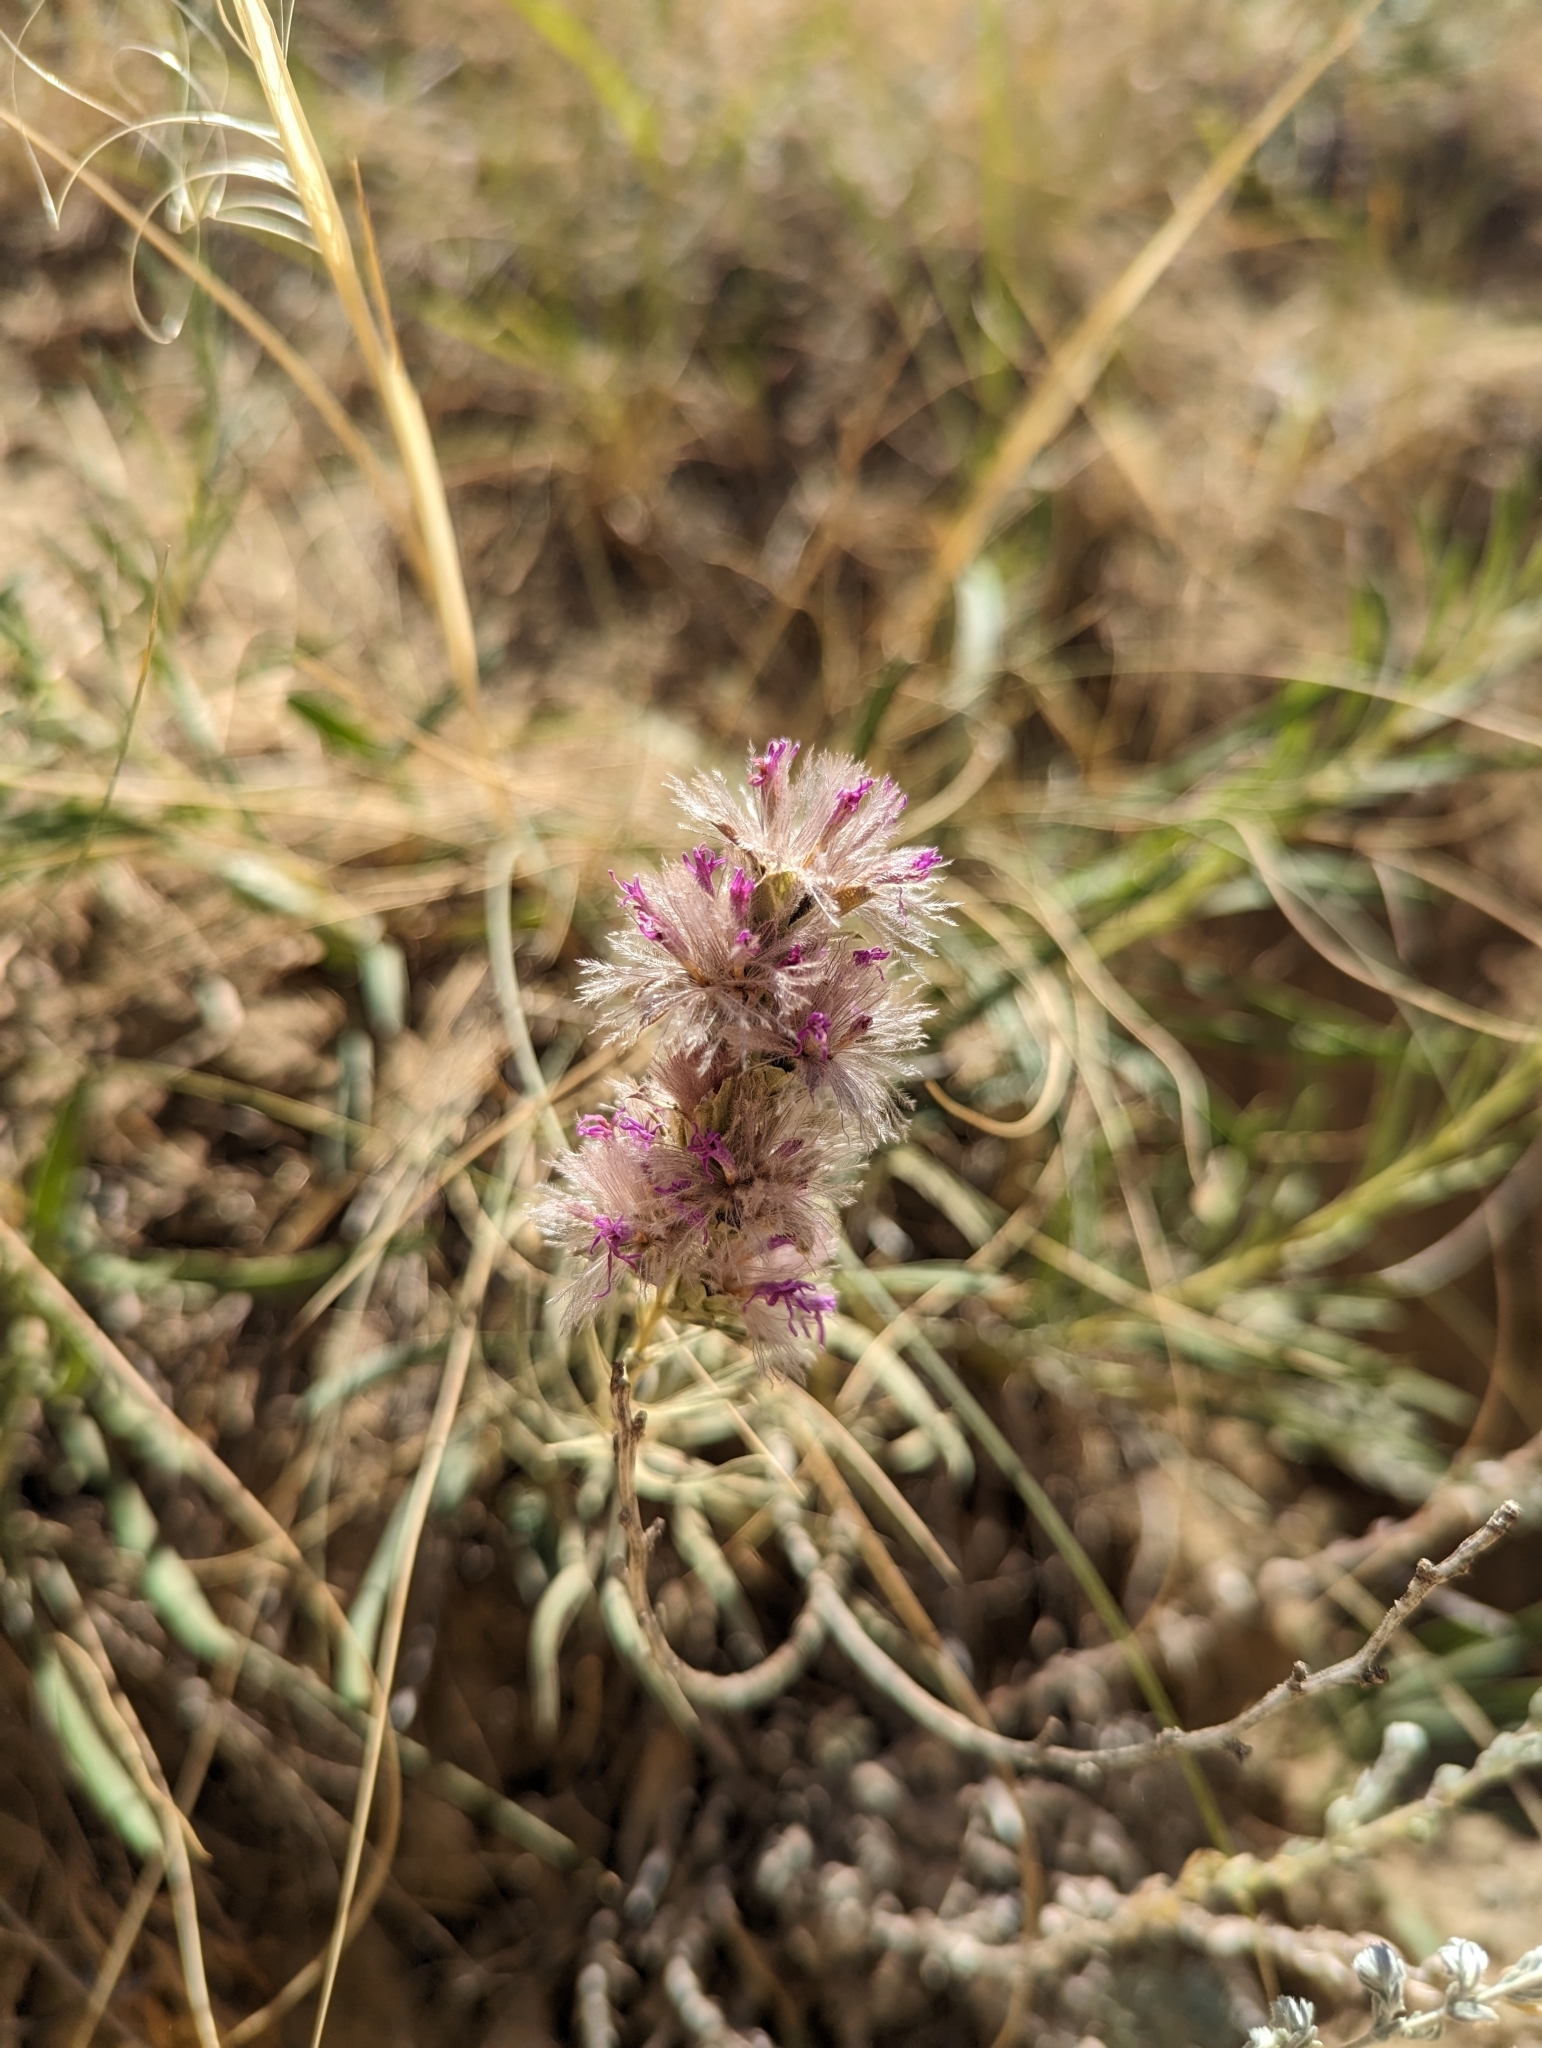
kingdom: Plantae
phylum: Tracheophyta
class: Magnoliopsida
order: Asterales
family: Asteraceae
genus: Liatris
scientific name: Liatris punctata
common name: Dotted gayfeather
